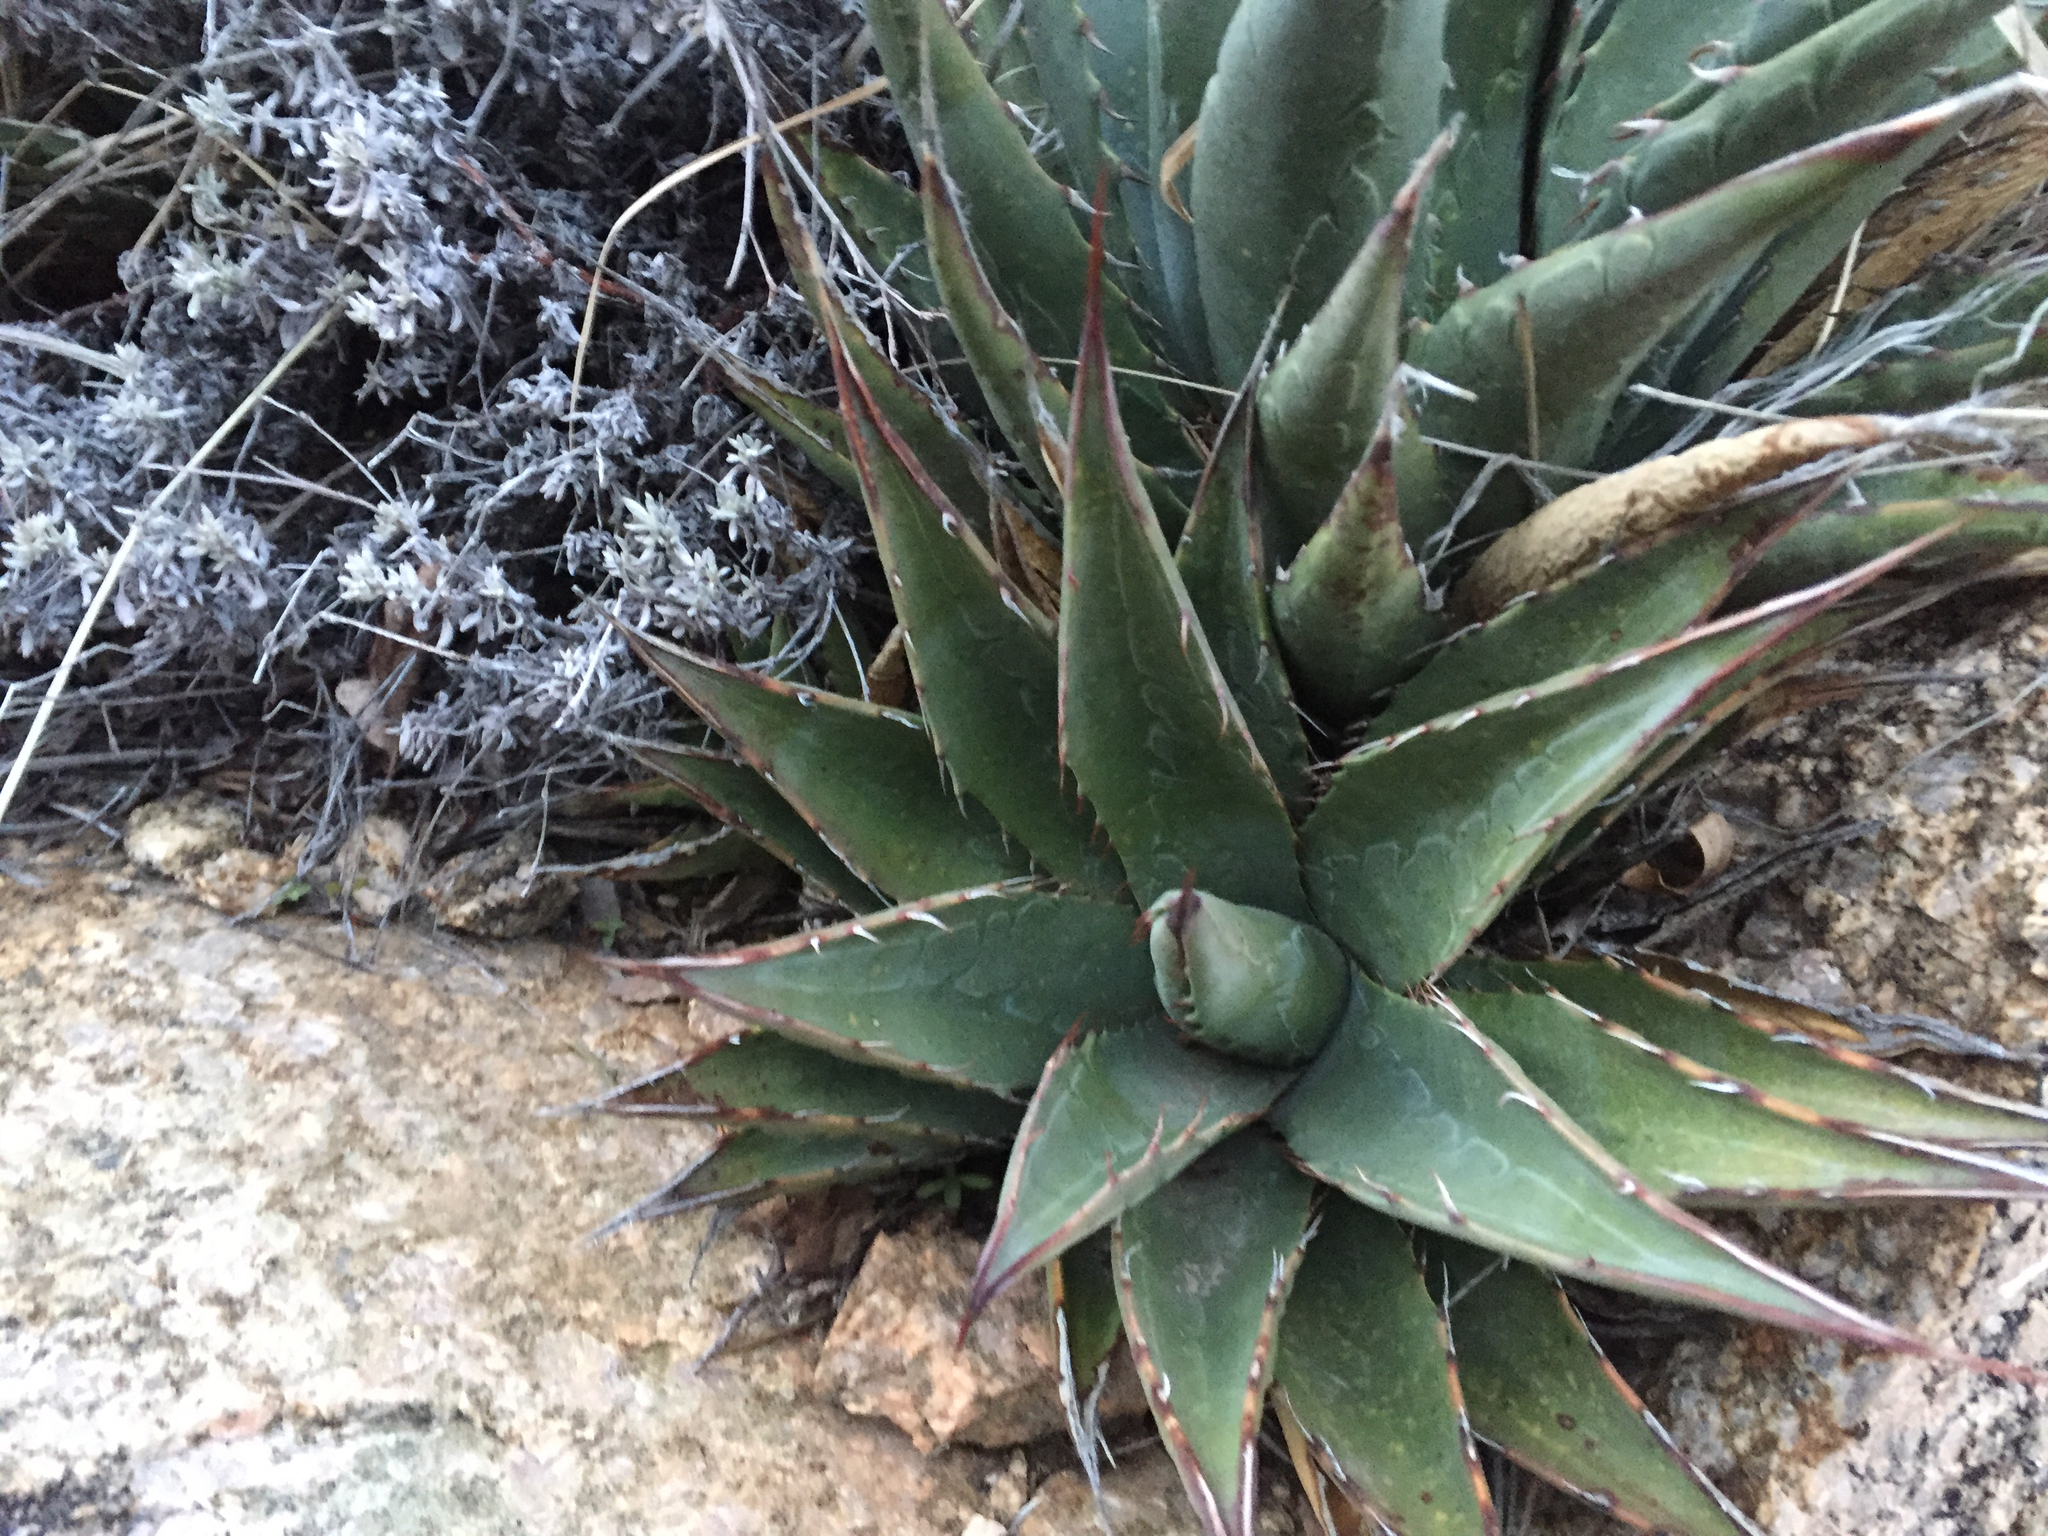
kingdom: Plantae
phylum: Tracheophyta
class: Liliopsida
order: Asparagales
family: Asparagaceae
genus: Agave
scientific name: Agave mckelveyana
